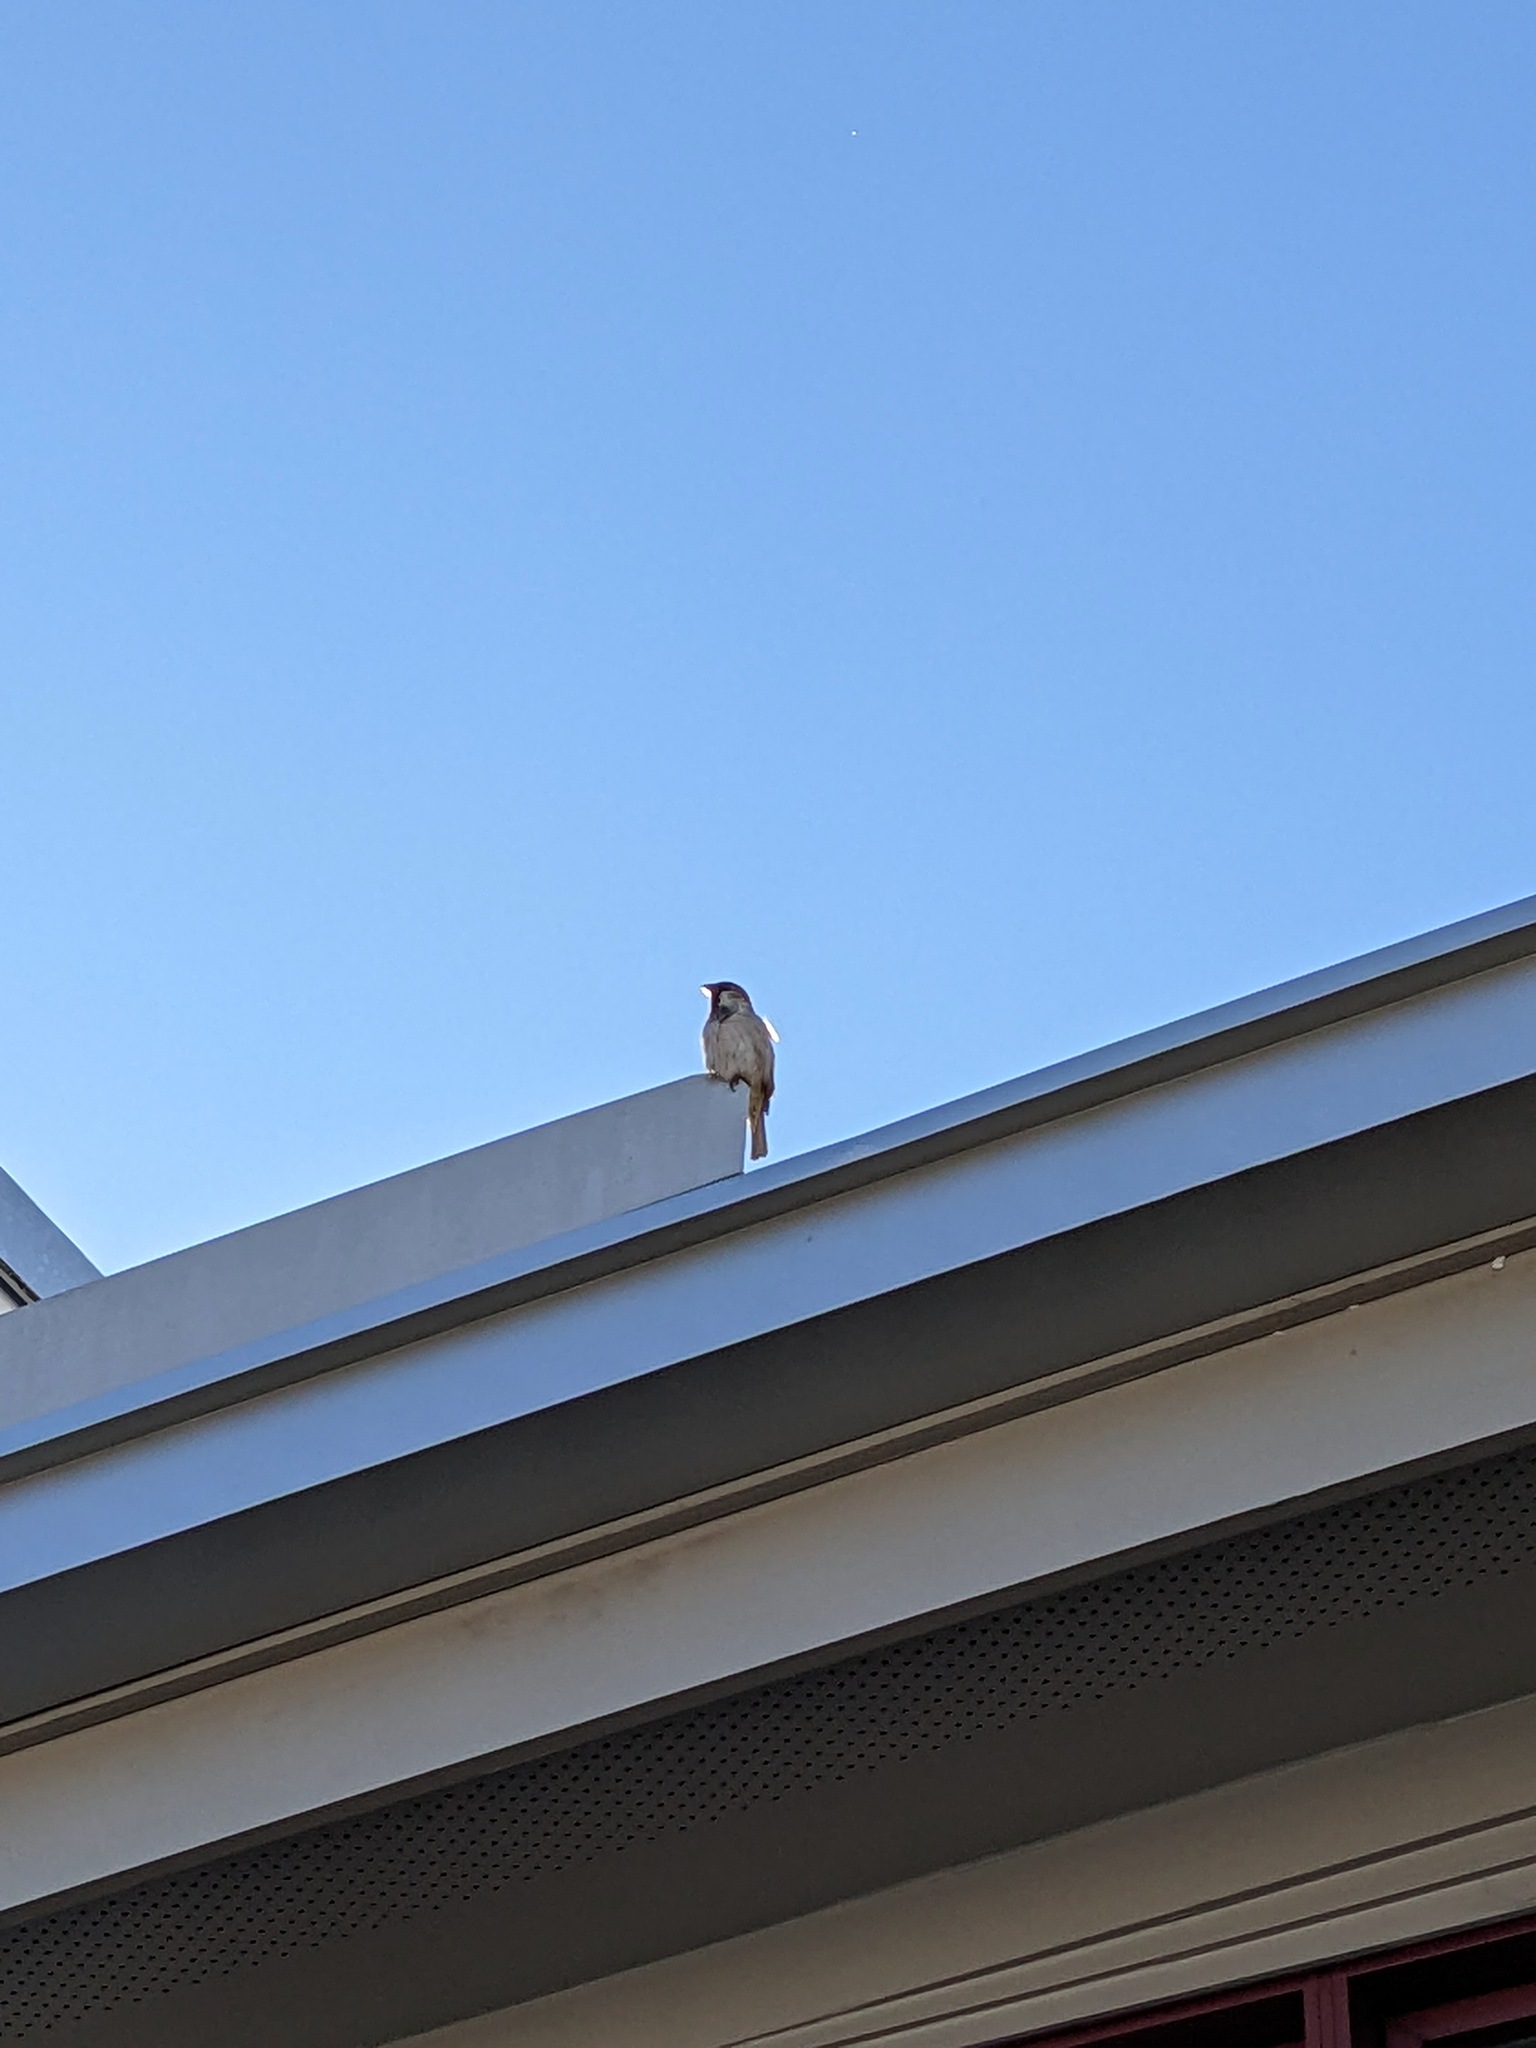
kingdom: Animalia
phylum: Chordata
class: Aves
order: Passeriformes
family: Passeridae
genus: Passer
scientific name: Passer domesticus
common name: House sparrow
